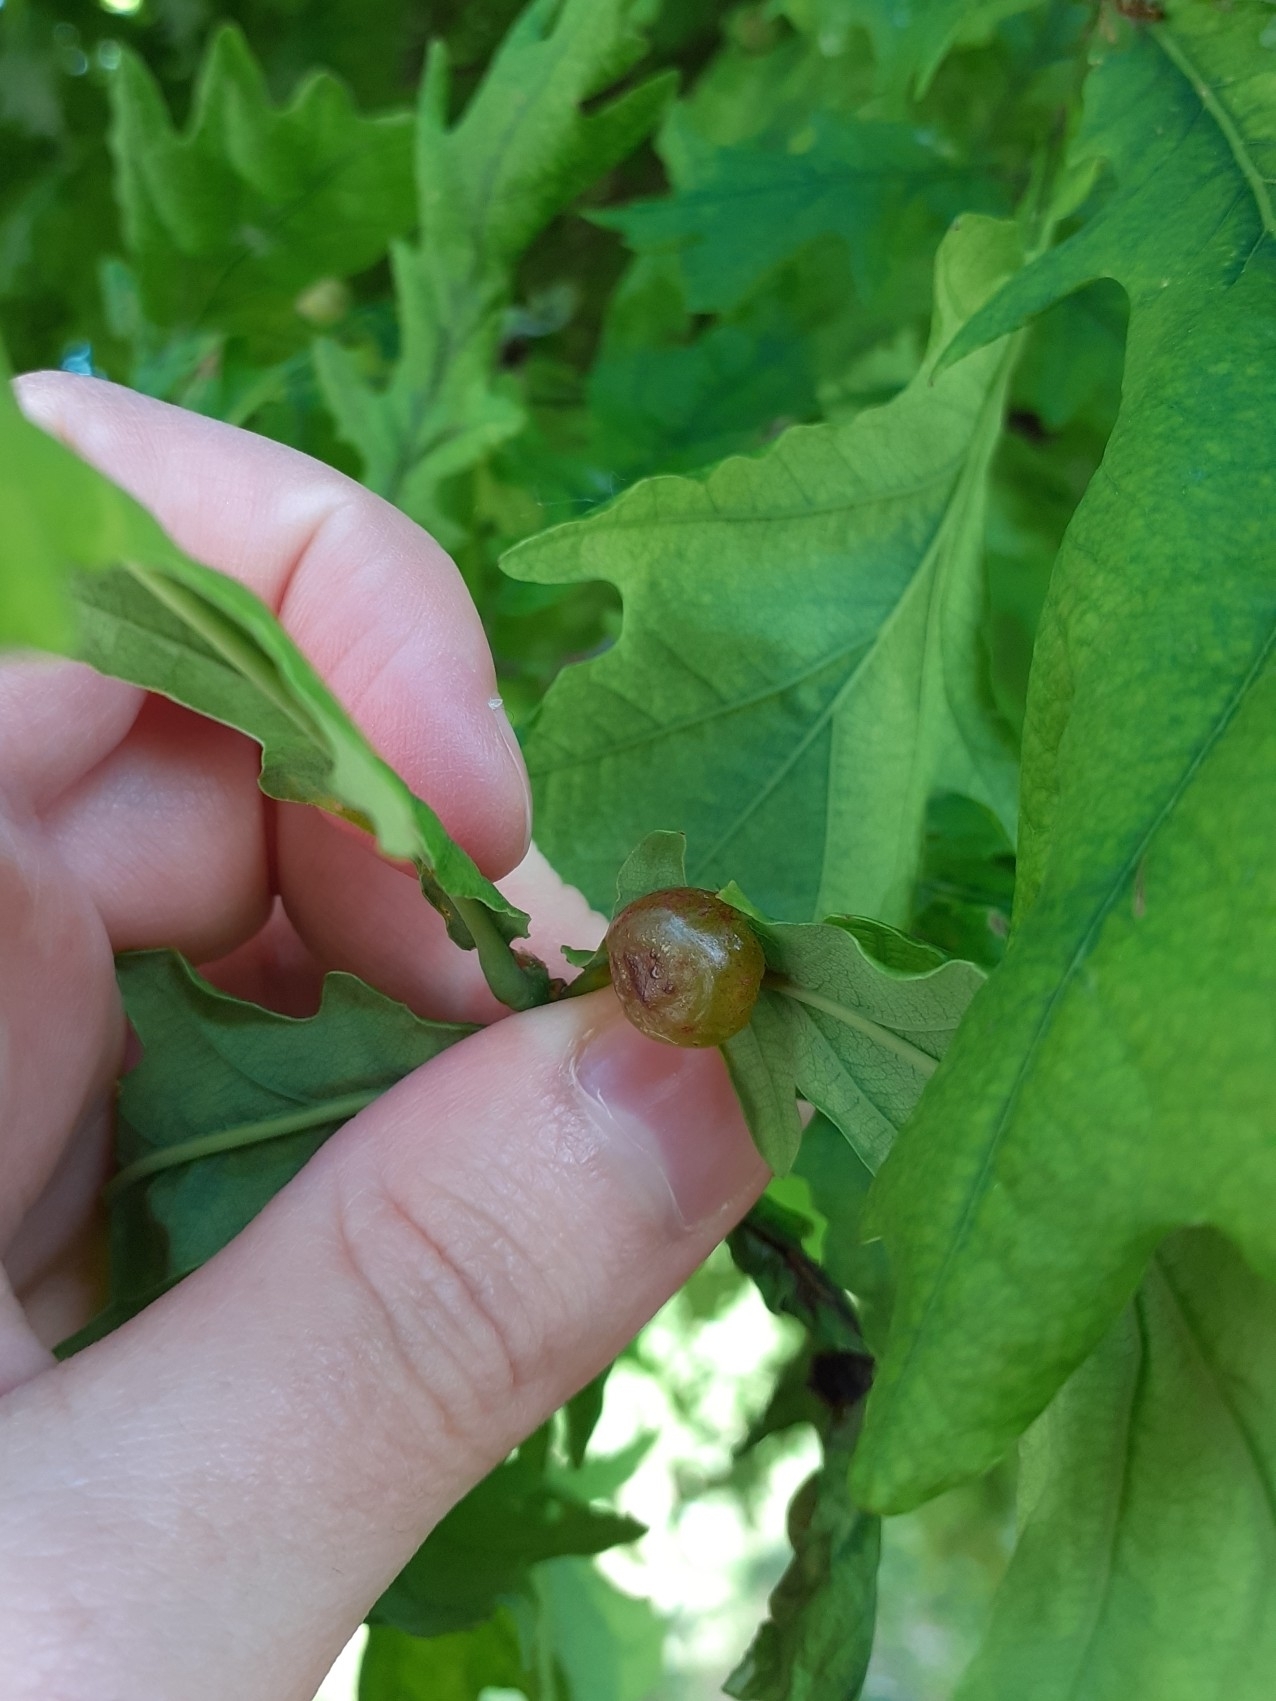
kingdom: Animalia
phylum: Arthropoda
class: Insecta
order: Hymenoptera
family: Cynipidae
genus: Neuroterus
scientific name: Neuroterus quercusbaccarum
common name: Common spangle gall
